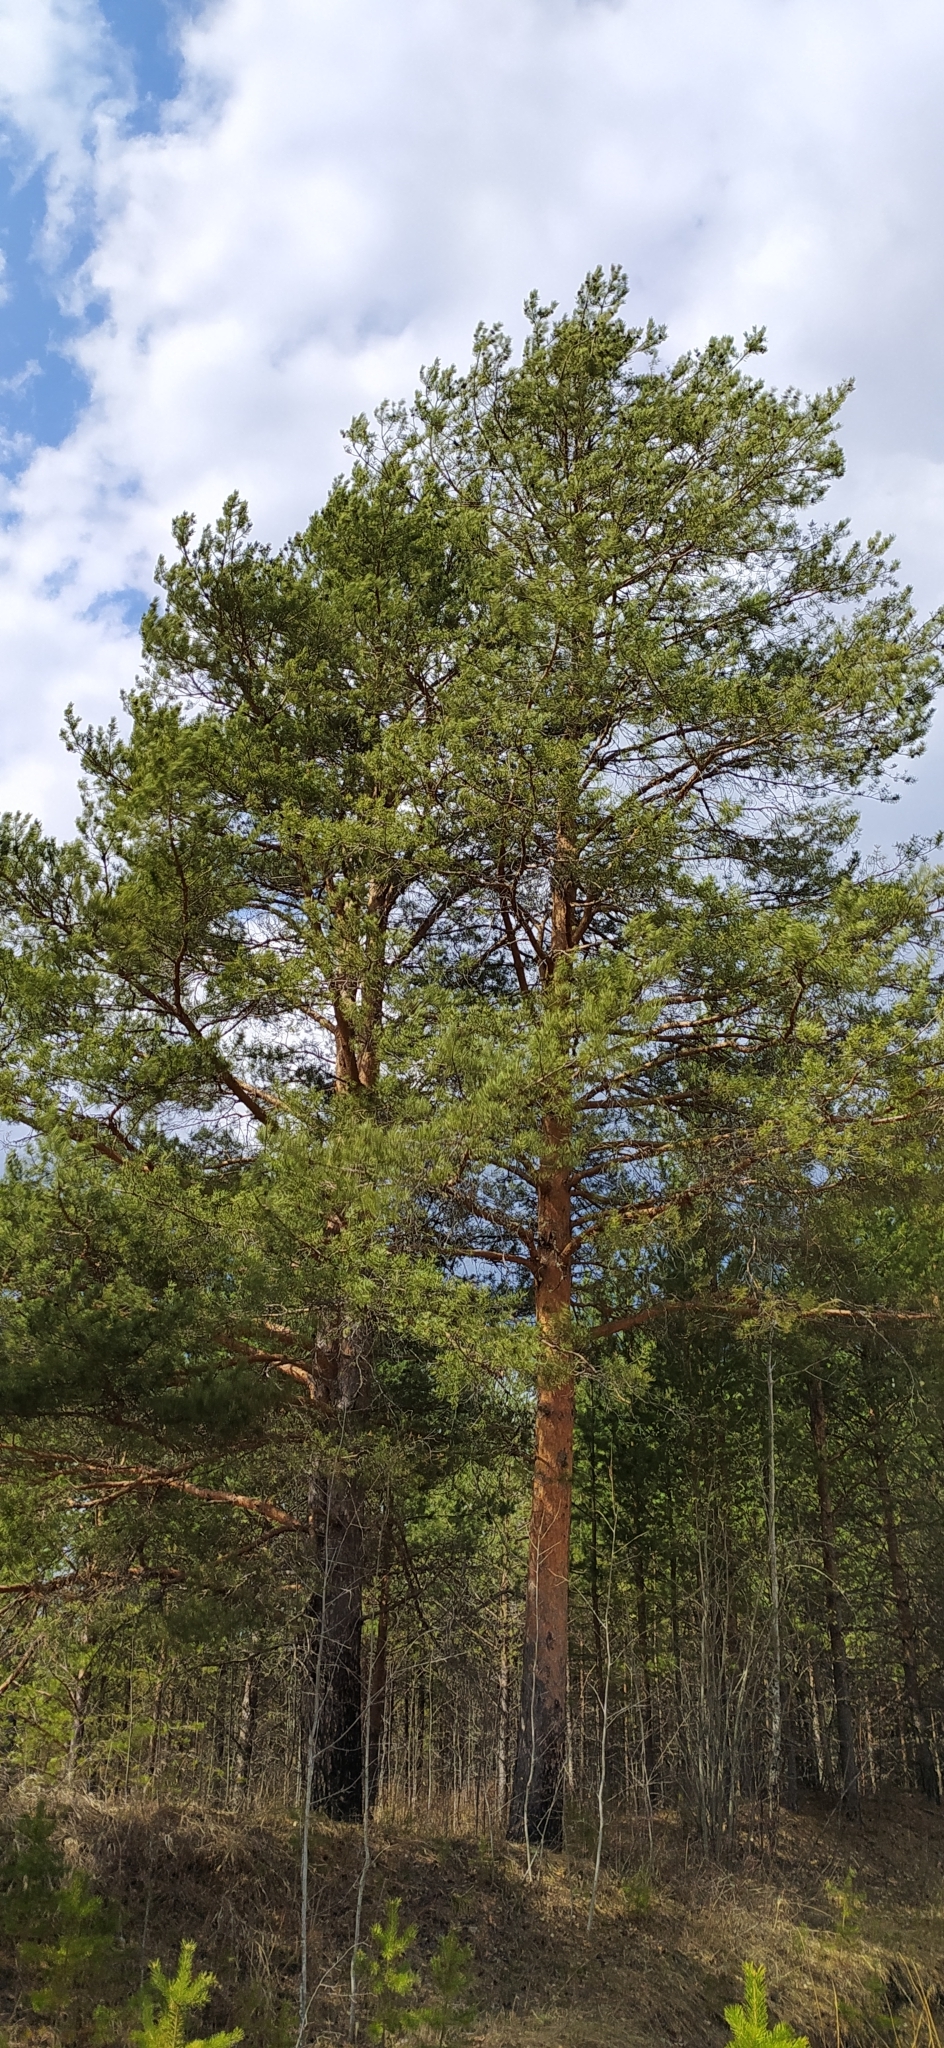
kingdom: Plantae
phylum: Tracheophyta
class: Pinopsida
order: Pinales
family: Pinaceae
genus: Pinus
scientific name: Pinus sylvestris
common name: Scots pine
